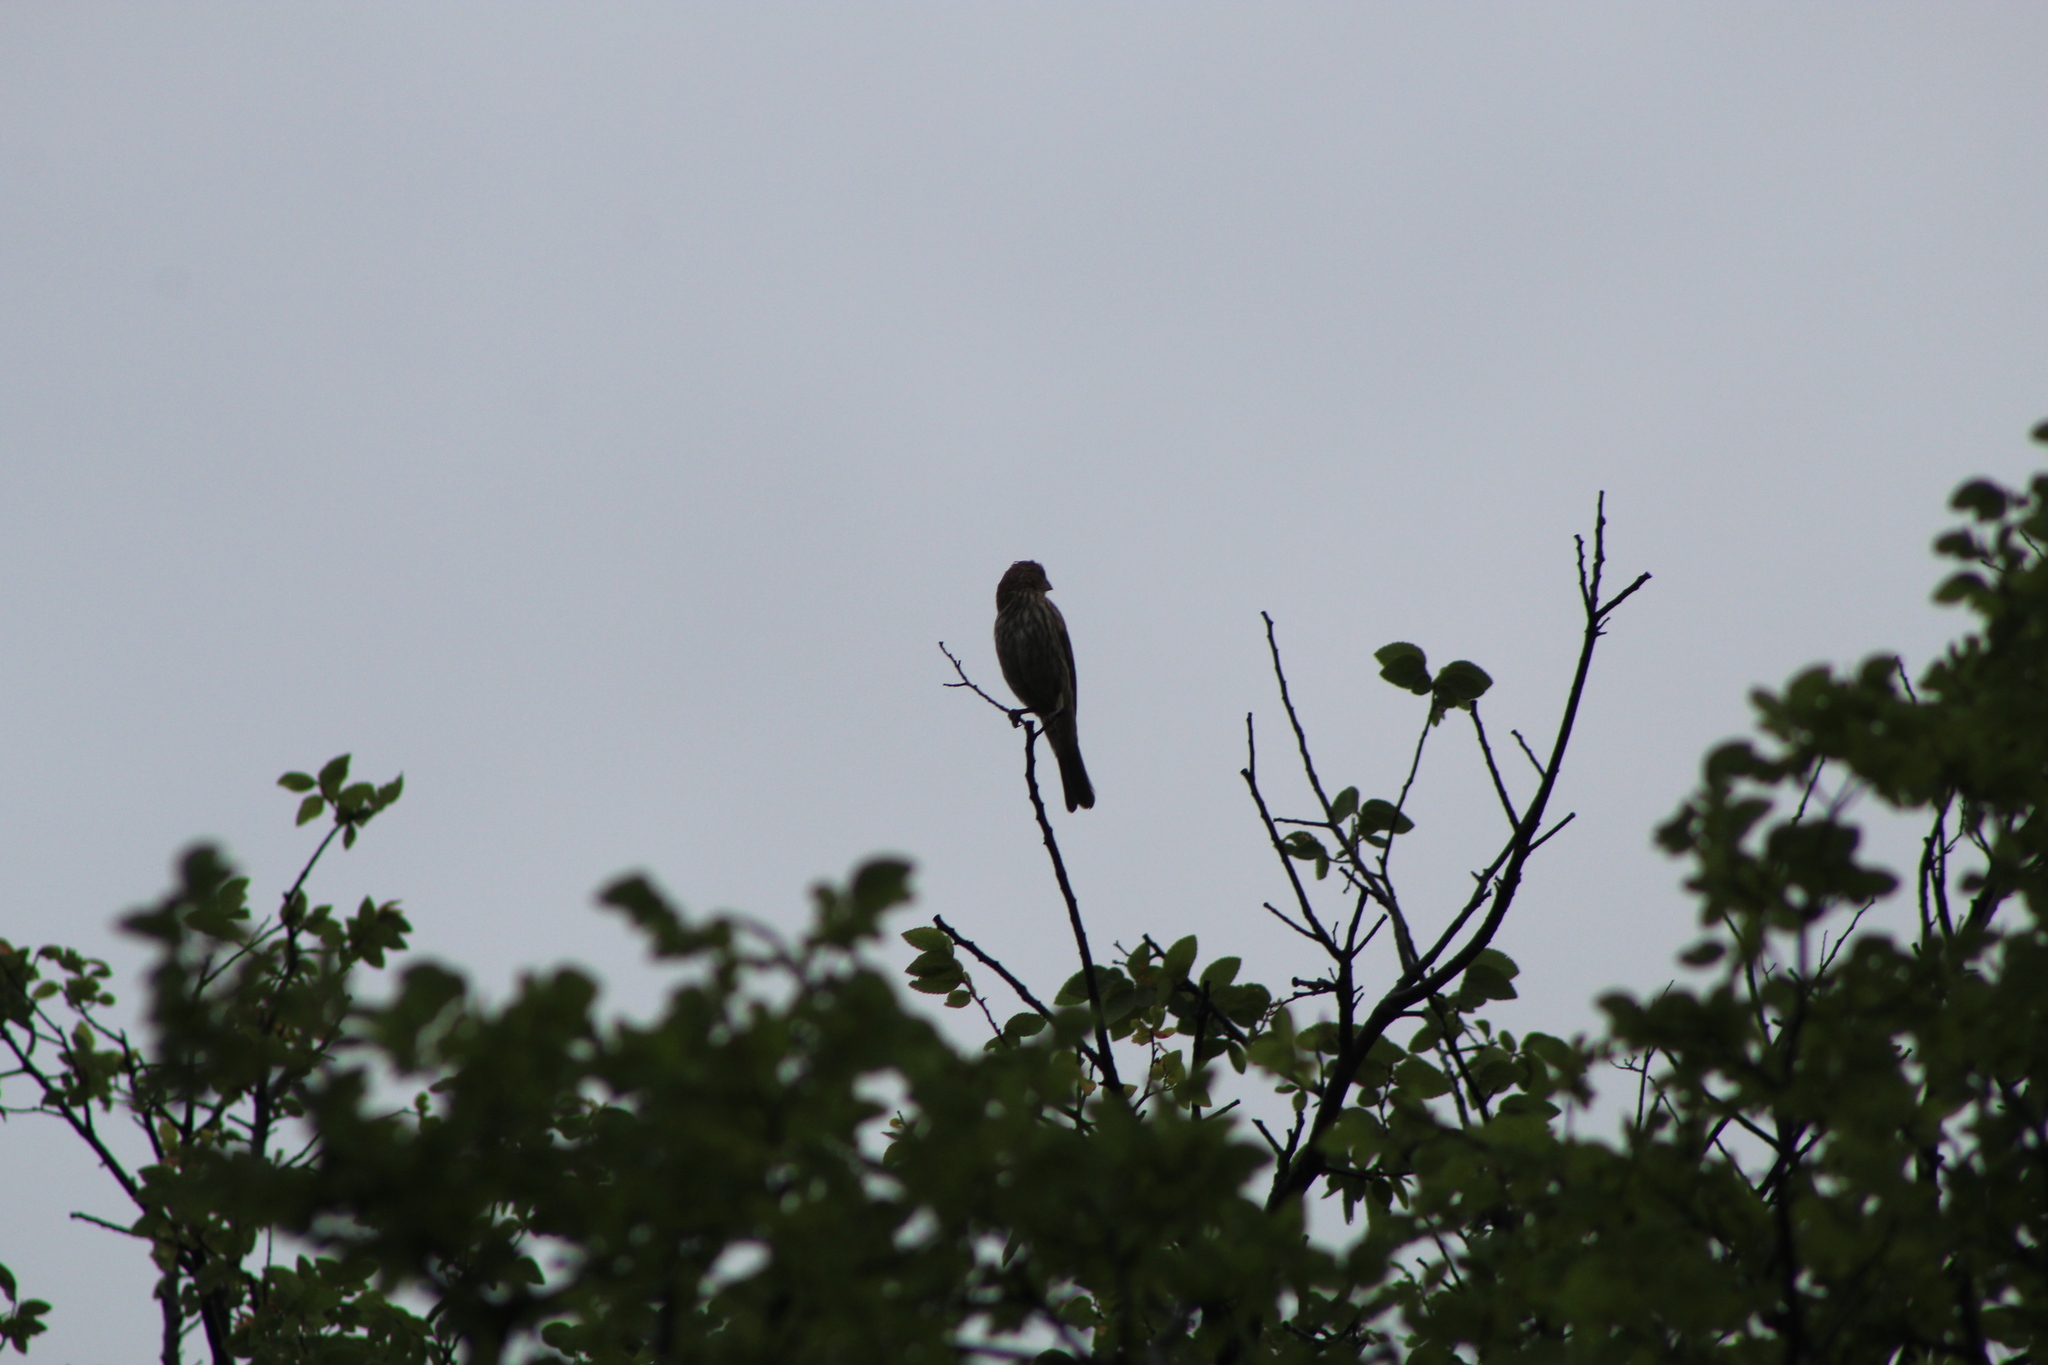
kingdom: Animalia
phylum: Chordata
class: Aves
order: Passeriformes
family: Fringillidae
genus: Haemorhous
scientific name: Haemorhous mexicanus
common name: House finch
